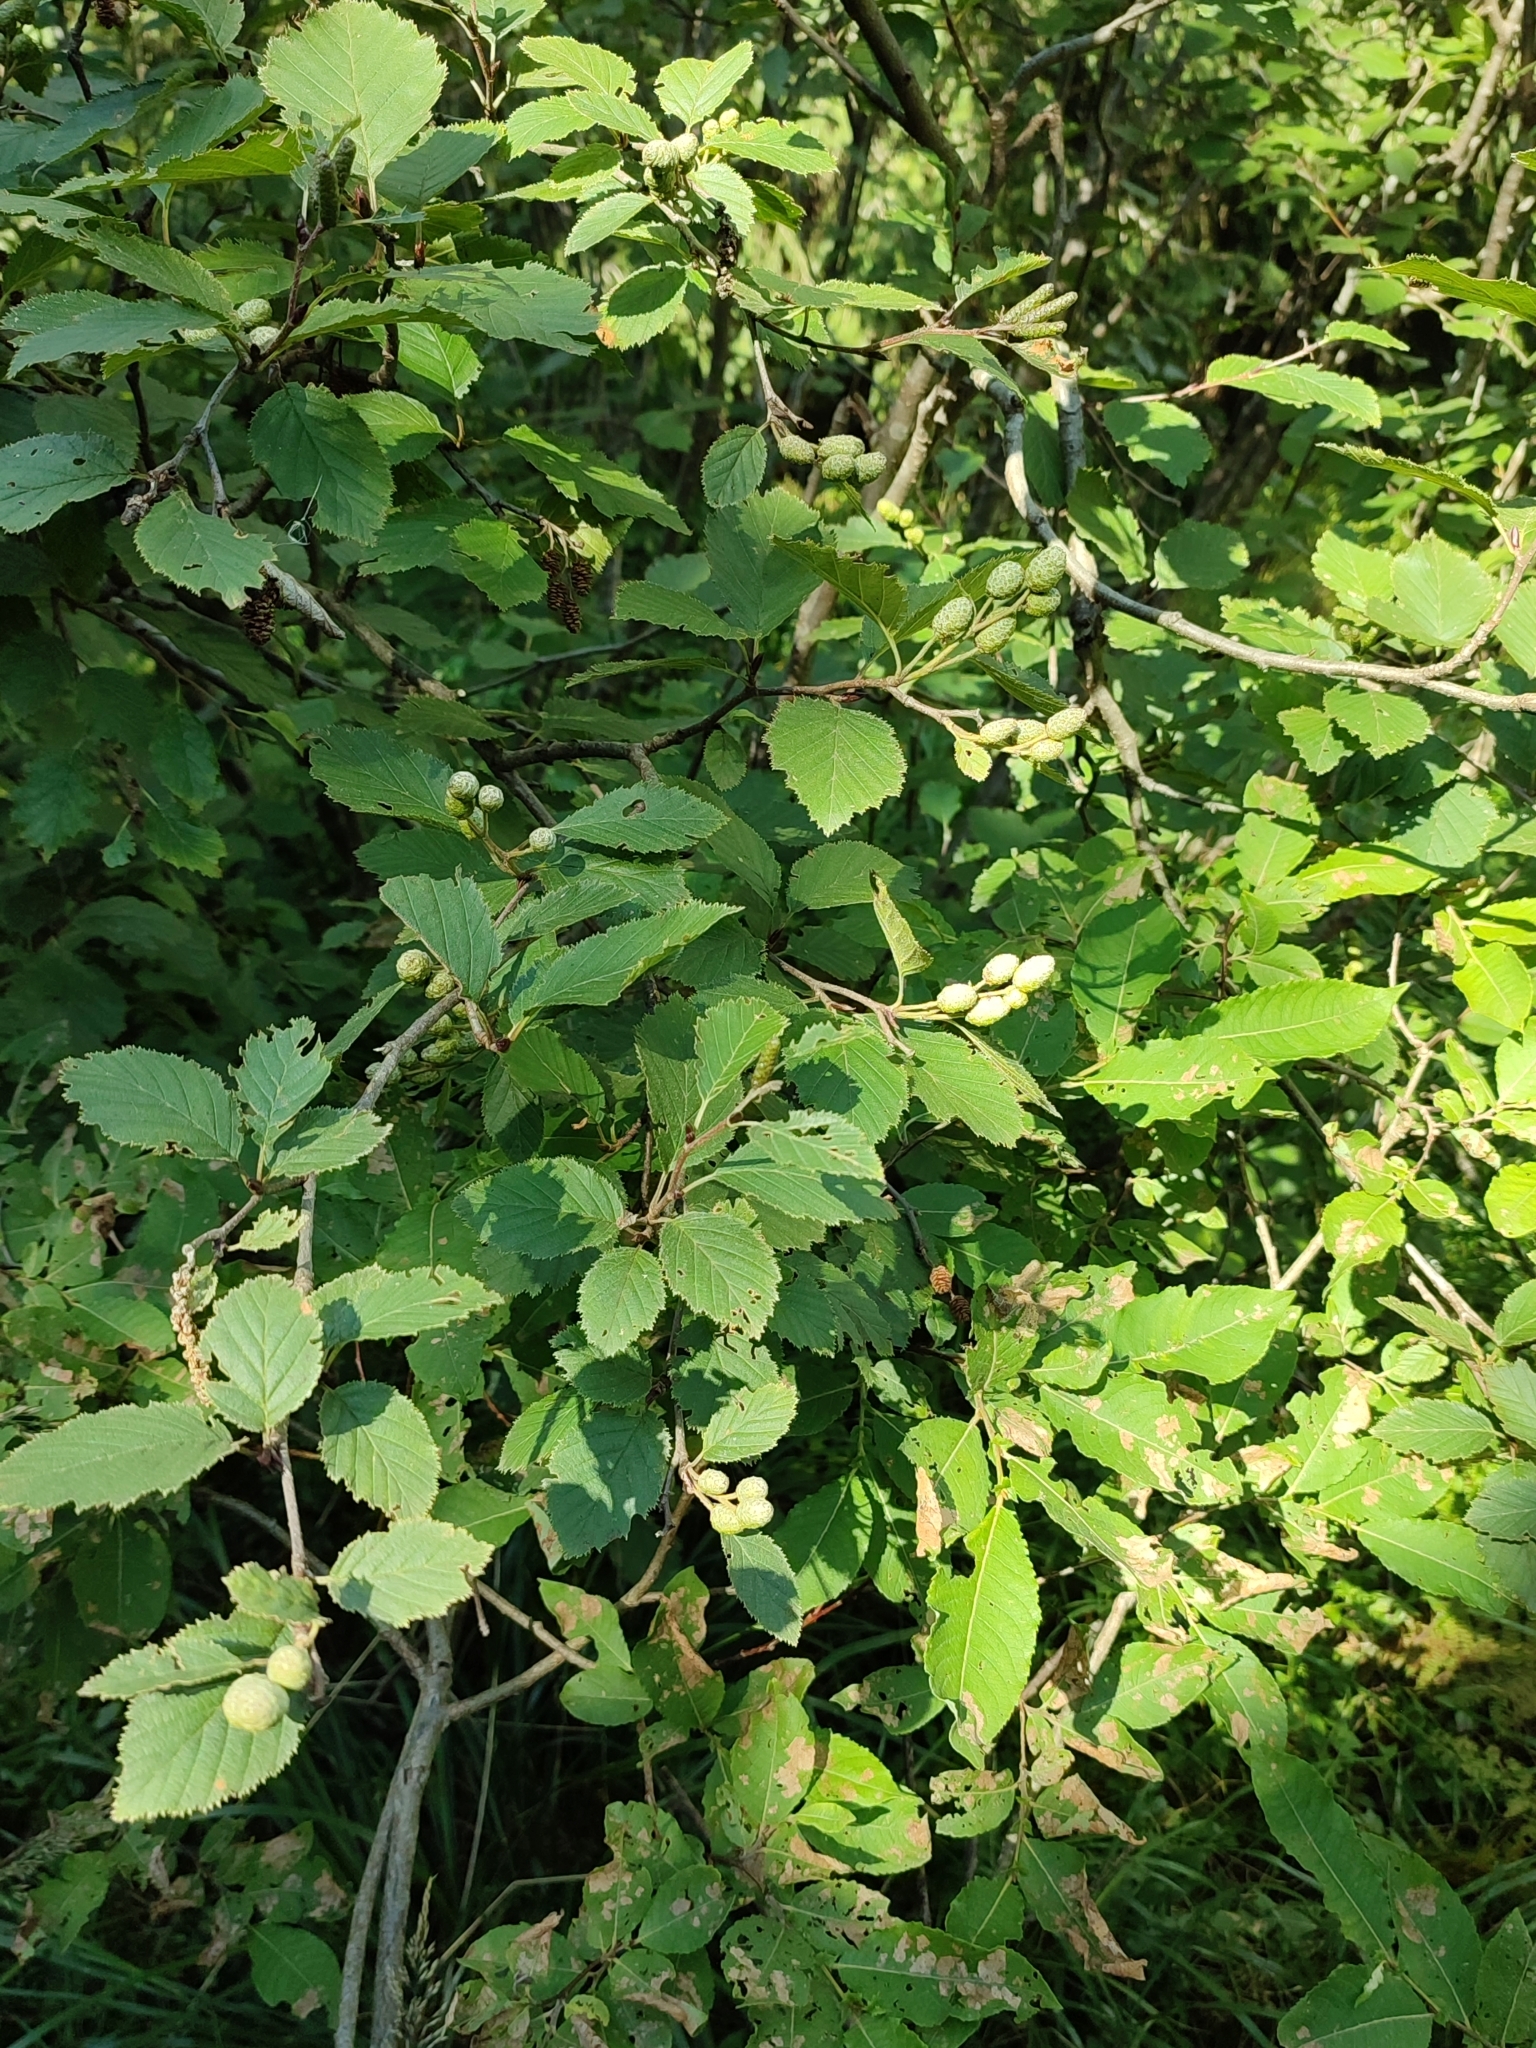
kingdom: Plantae
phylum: Tracheophyta
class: Magnoliopsida
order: Fagales
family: Betulaceae
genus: Alnus
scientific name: Alnus incana
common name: Grey alder
